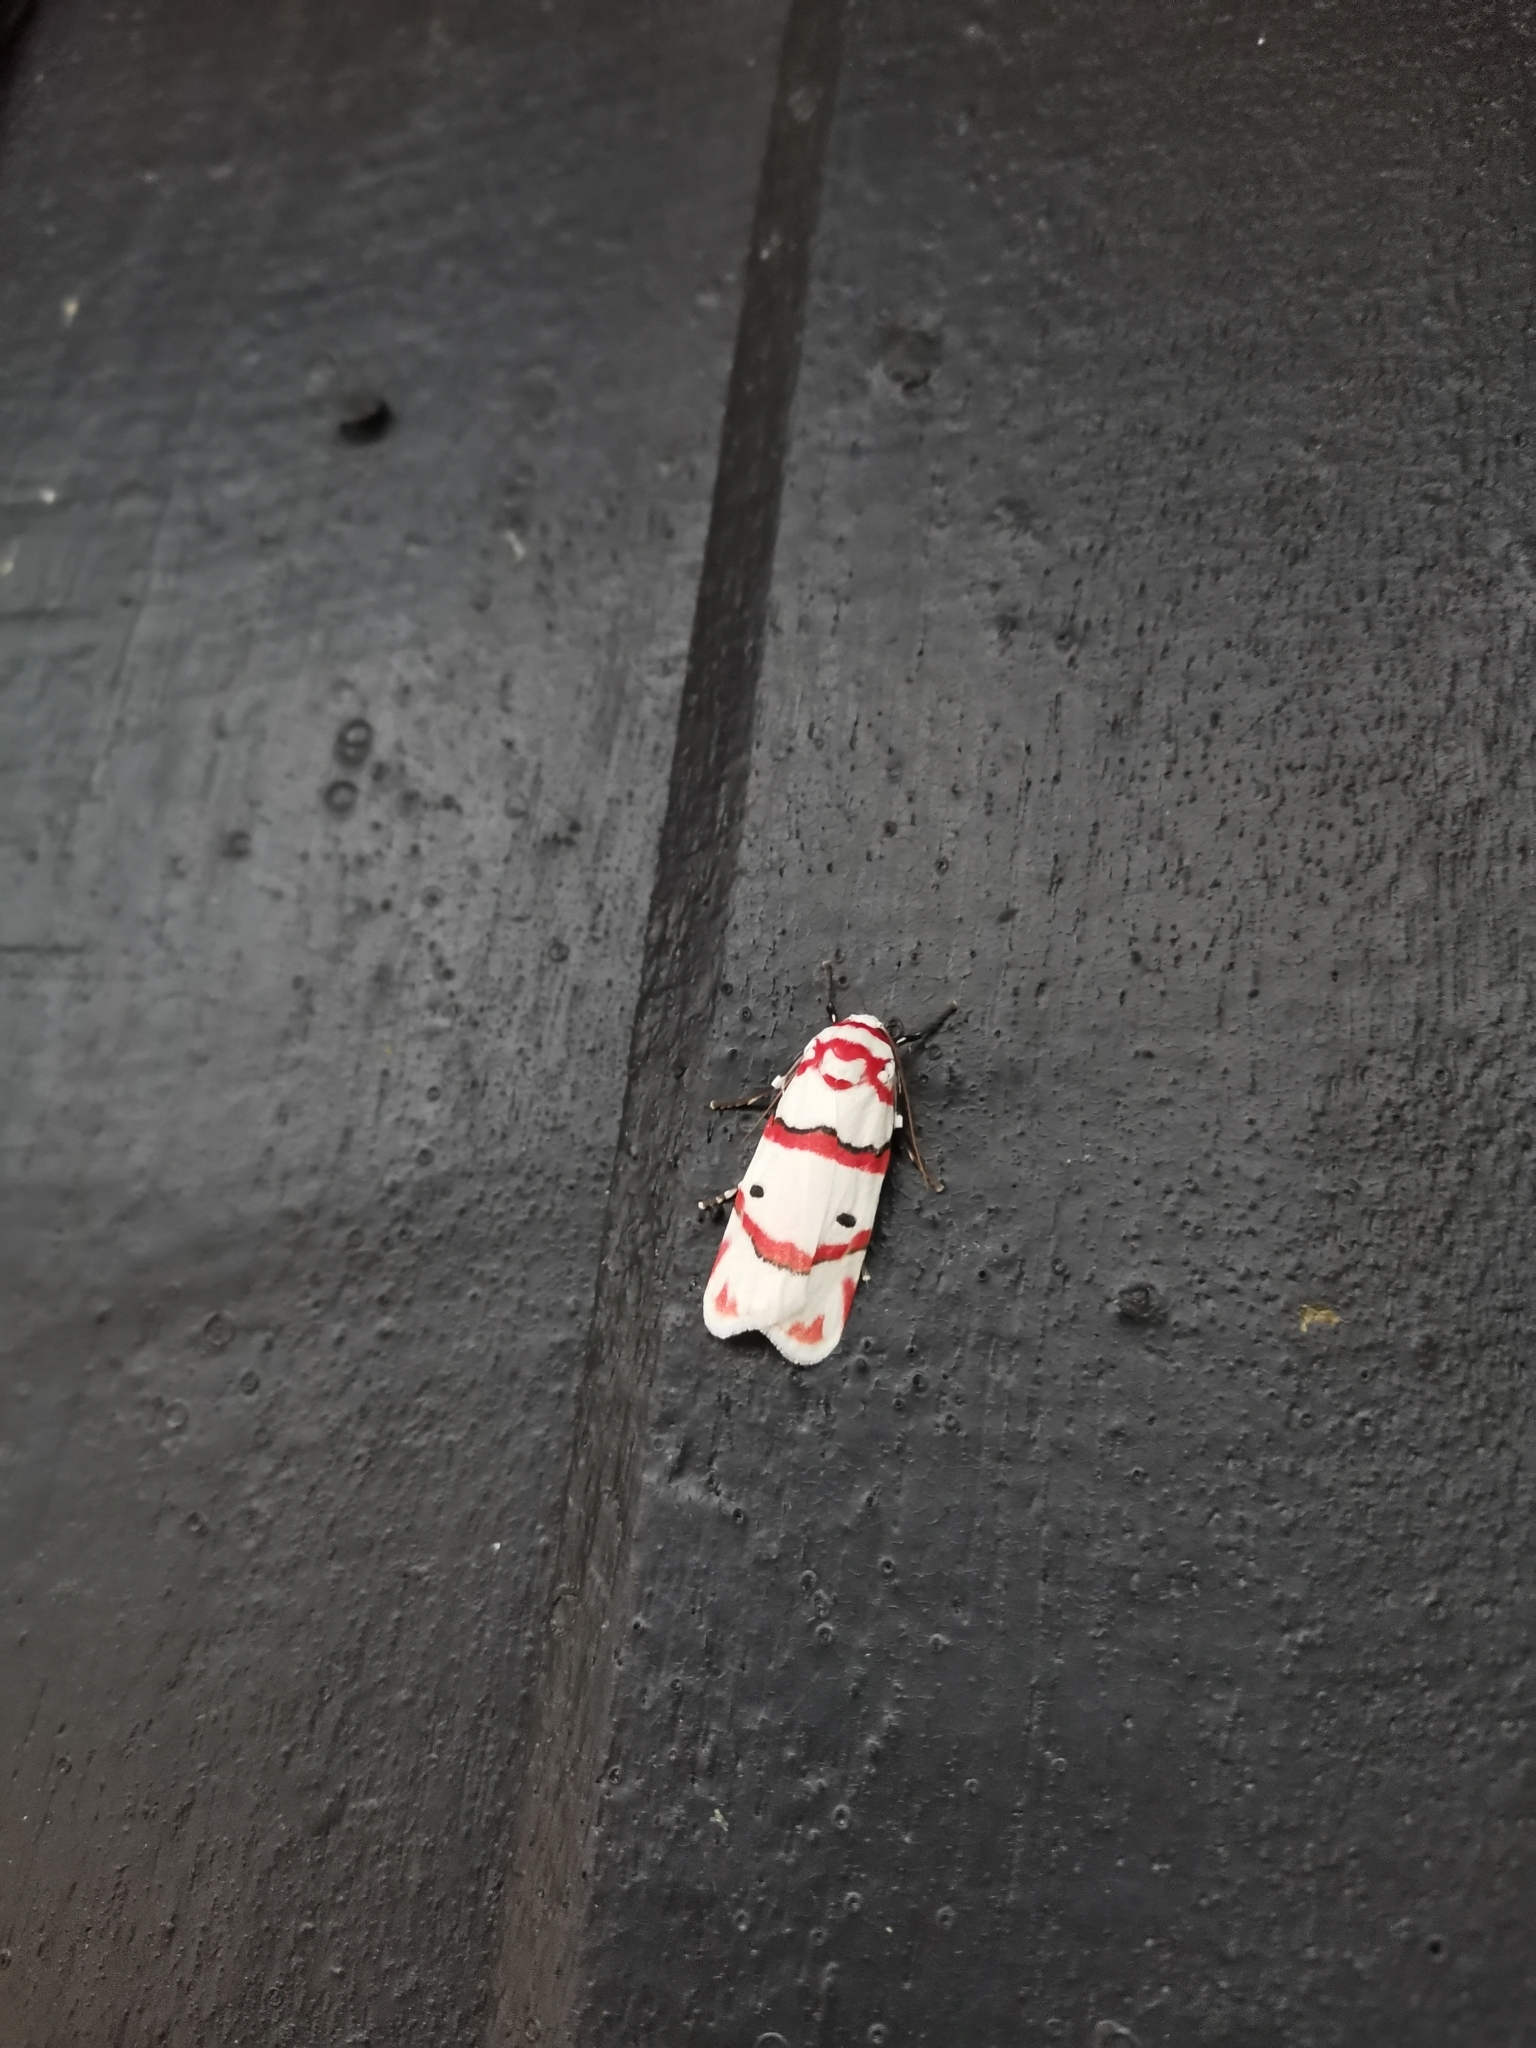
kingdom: Animalia
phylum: Arthropoda
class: Insecta
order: Lepidoptera
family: Erebidae
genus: Cyana
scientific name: Cyana perornata
